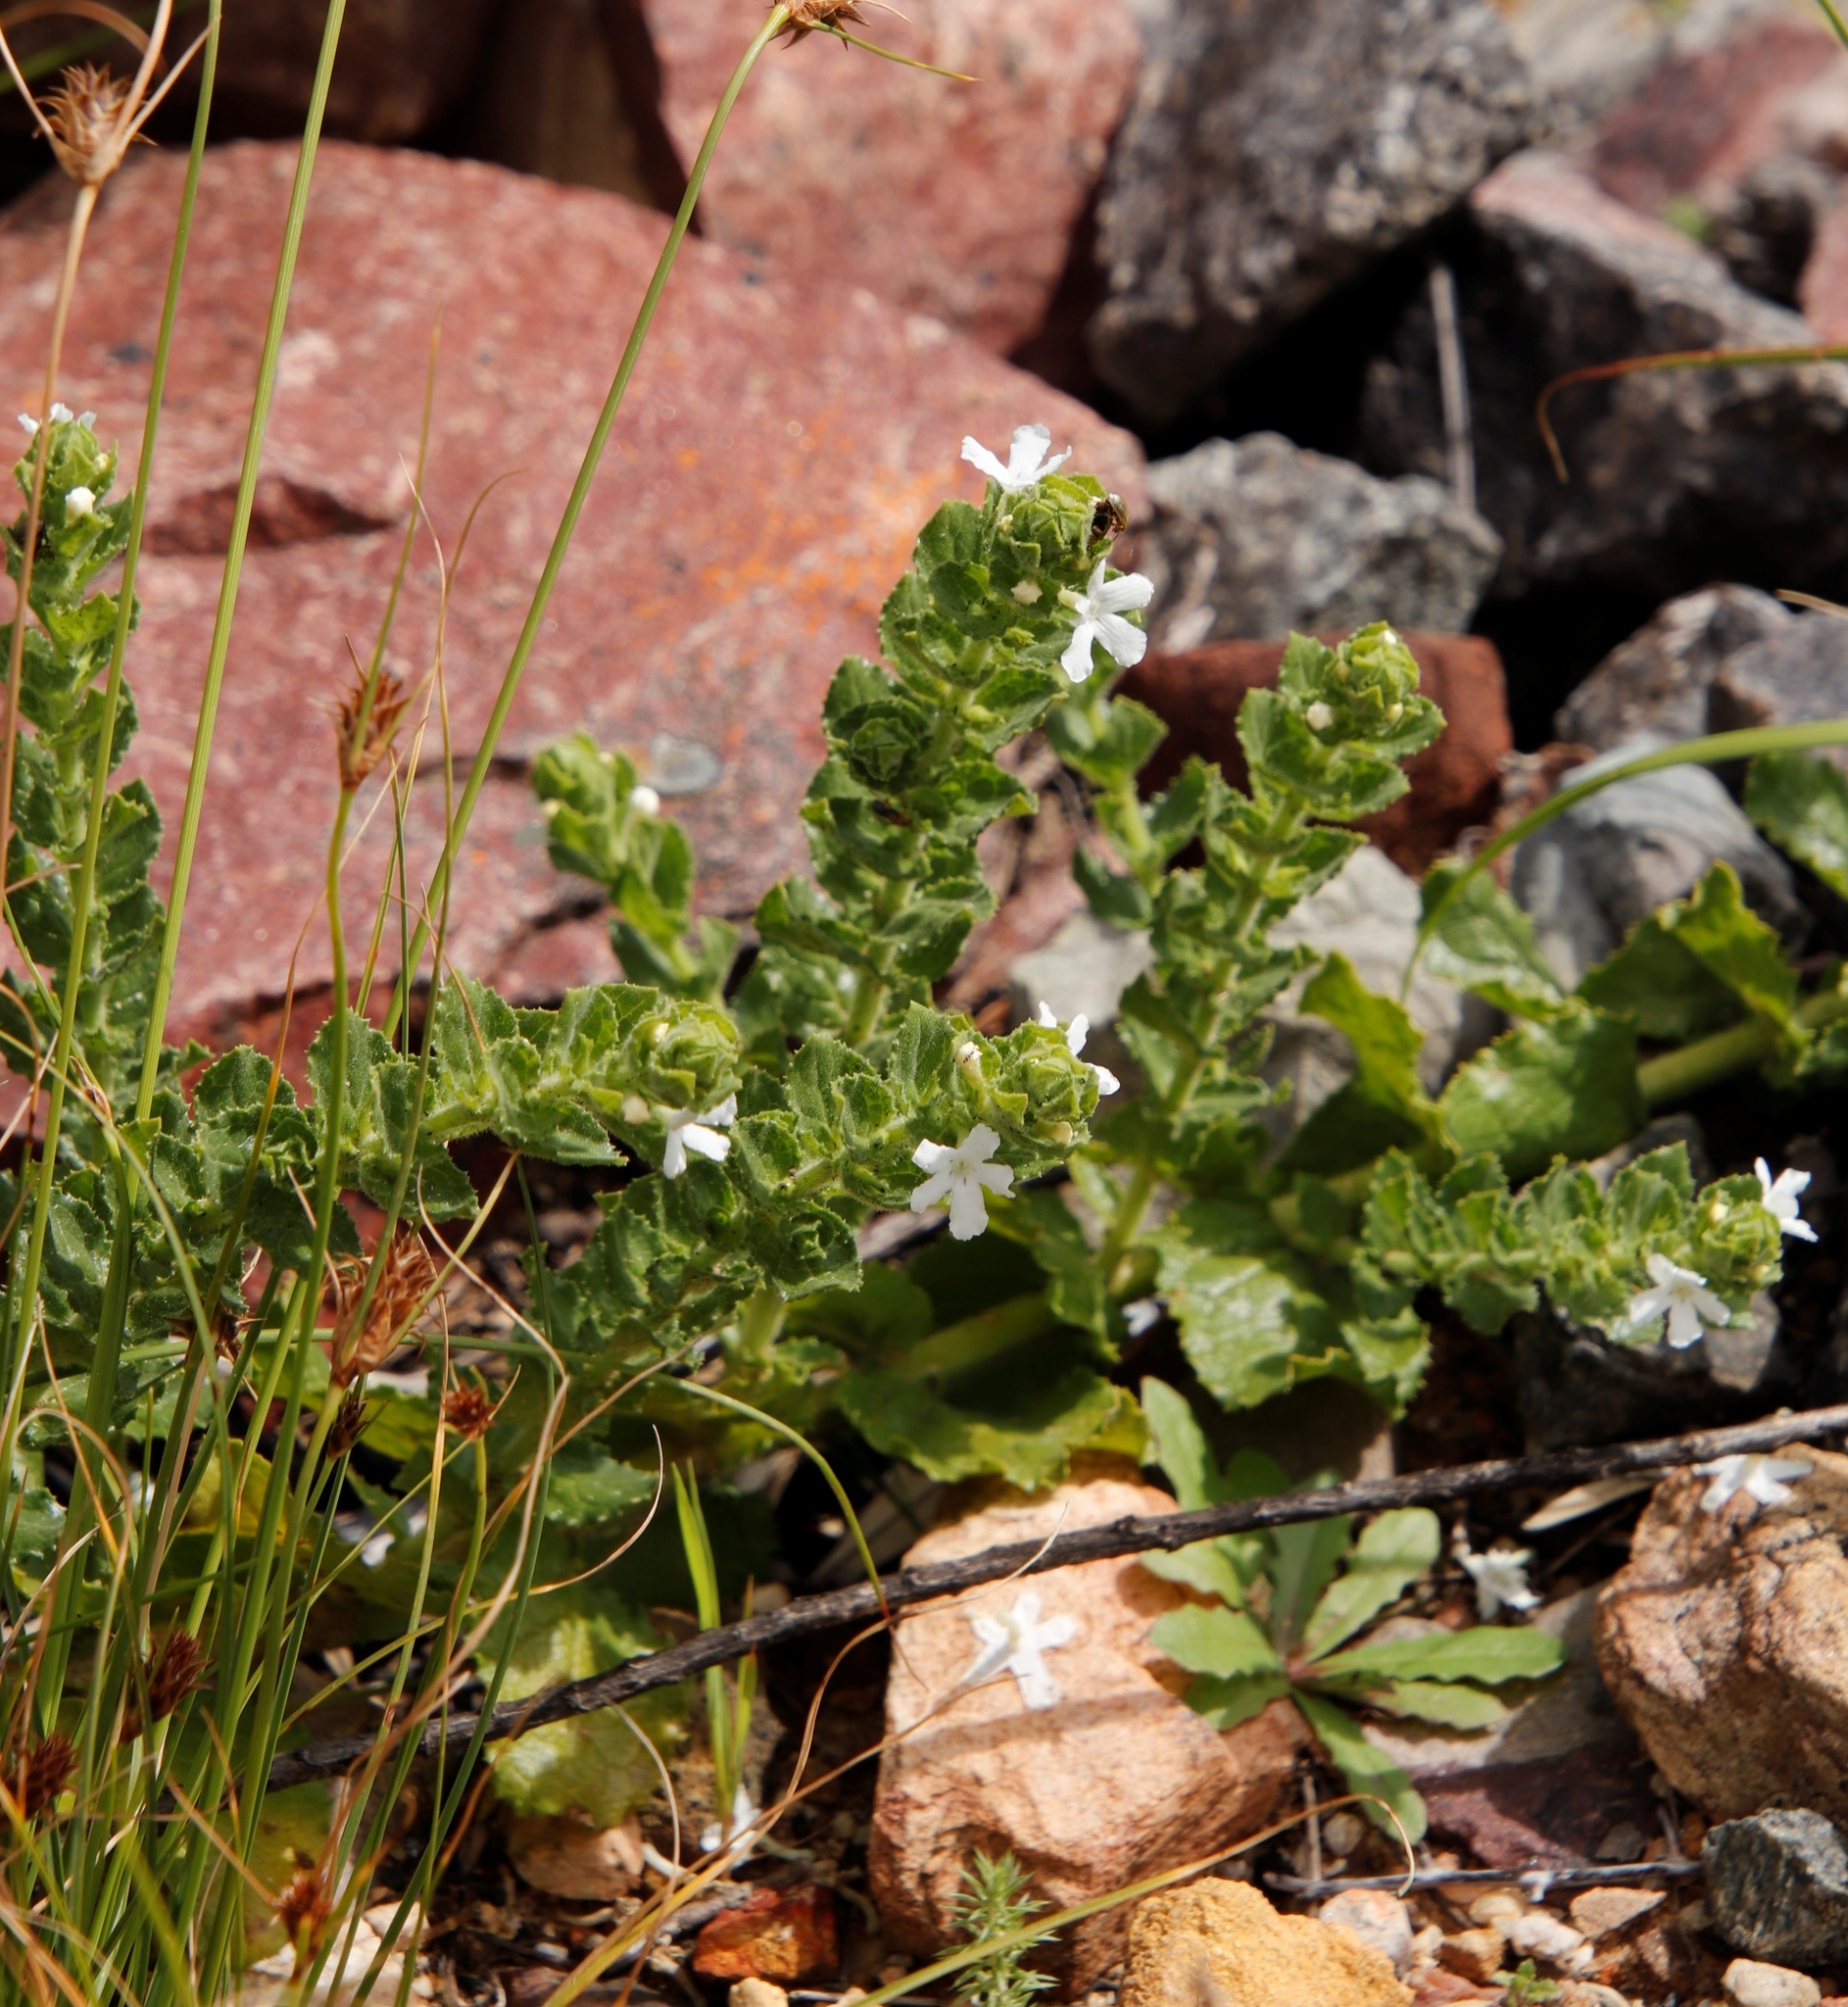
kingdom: Plantae
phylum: Tracheophyta
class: Magnoliopsida
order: Lamiales
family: Scrophulariaceae
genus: Oftia
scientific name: Oftia africana
